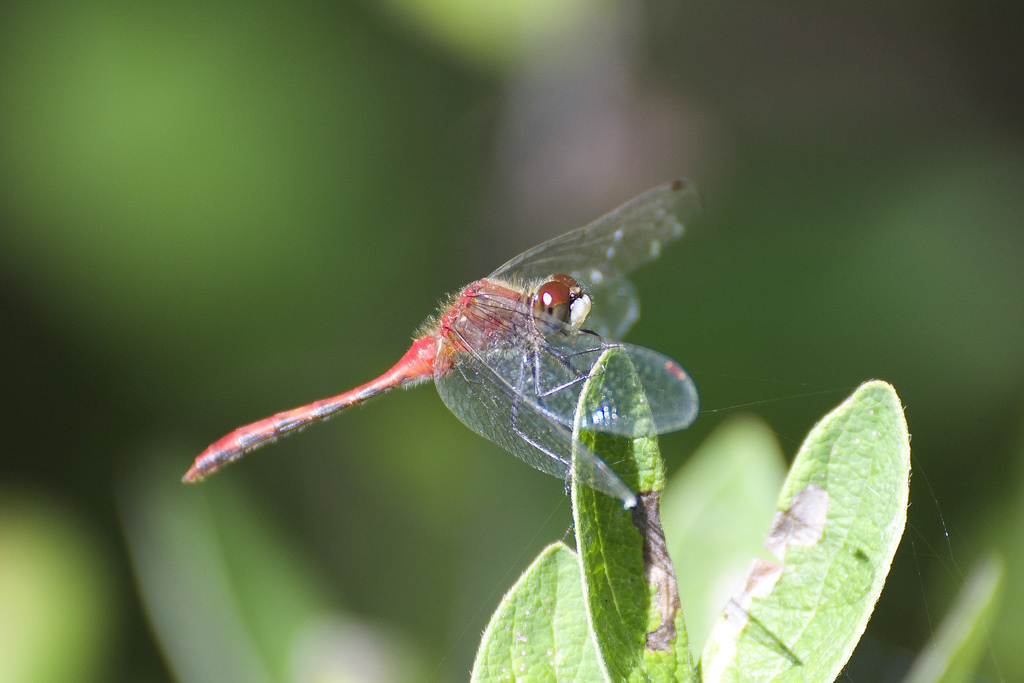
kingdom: Animalia
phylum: Arthropoda
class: Insecta
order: Odonata
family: Libellulidae
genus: Sympetrum
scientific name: Sympetrum obtrusum
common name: White-faced meadowhawk
